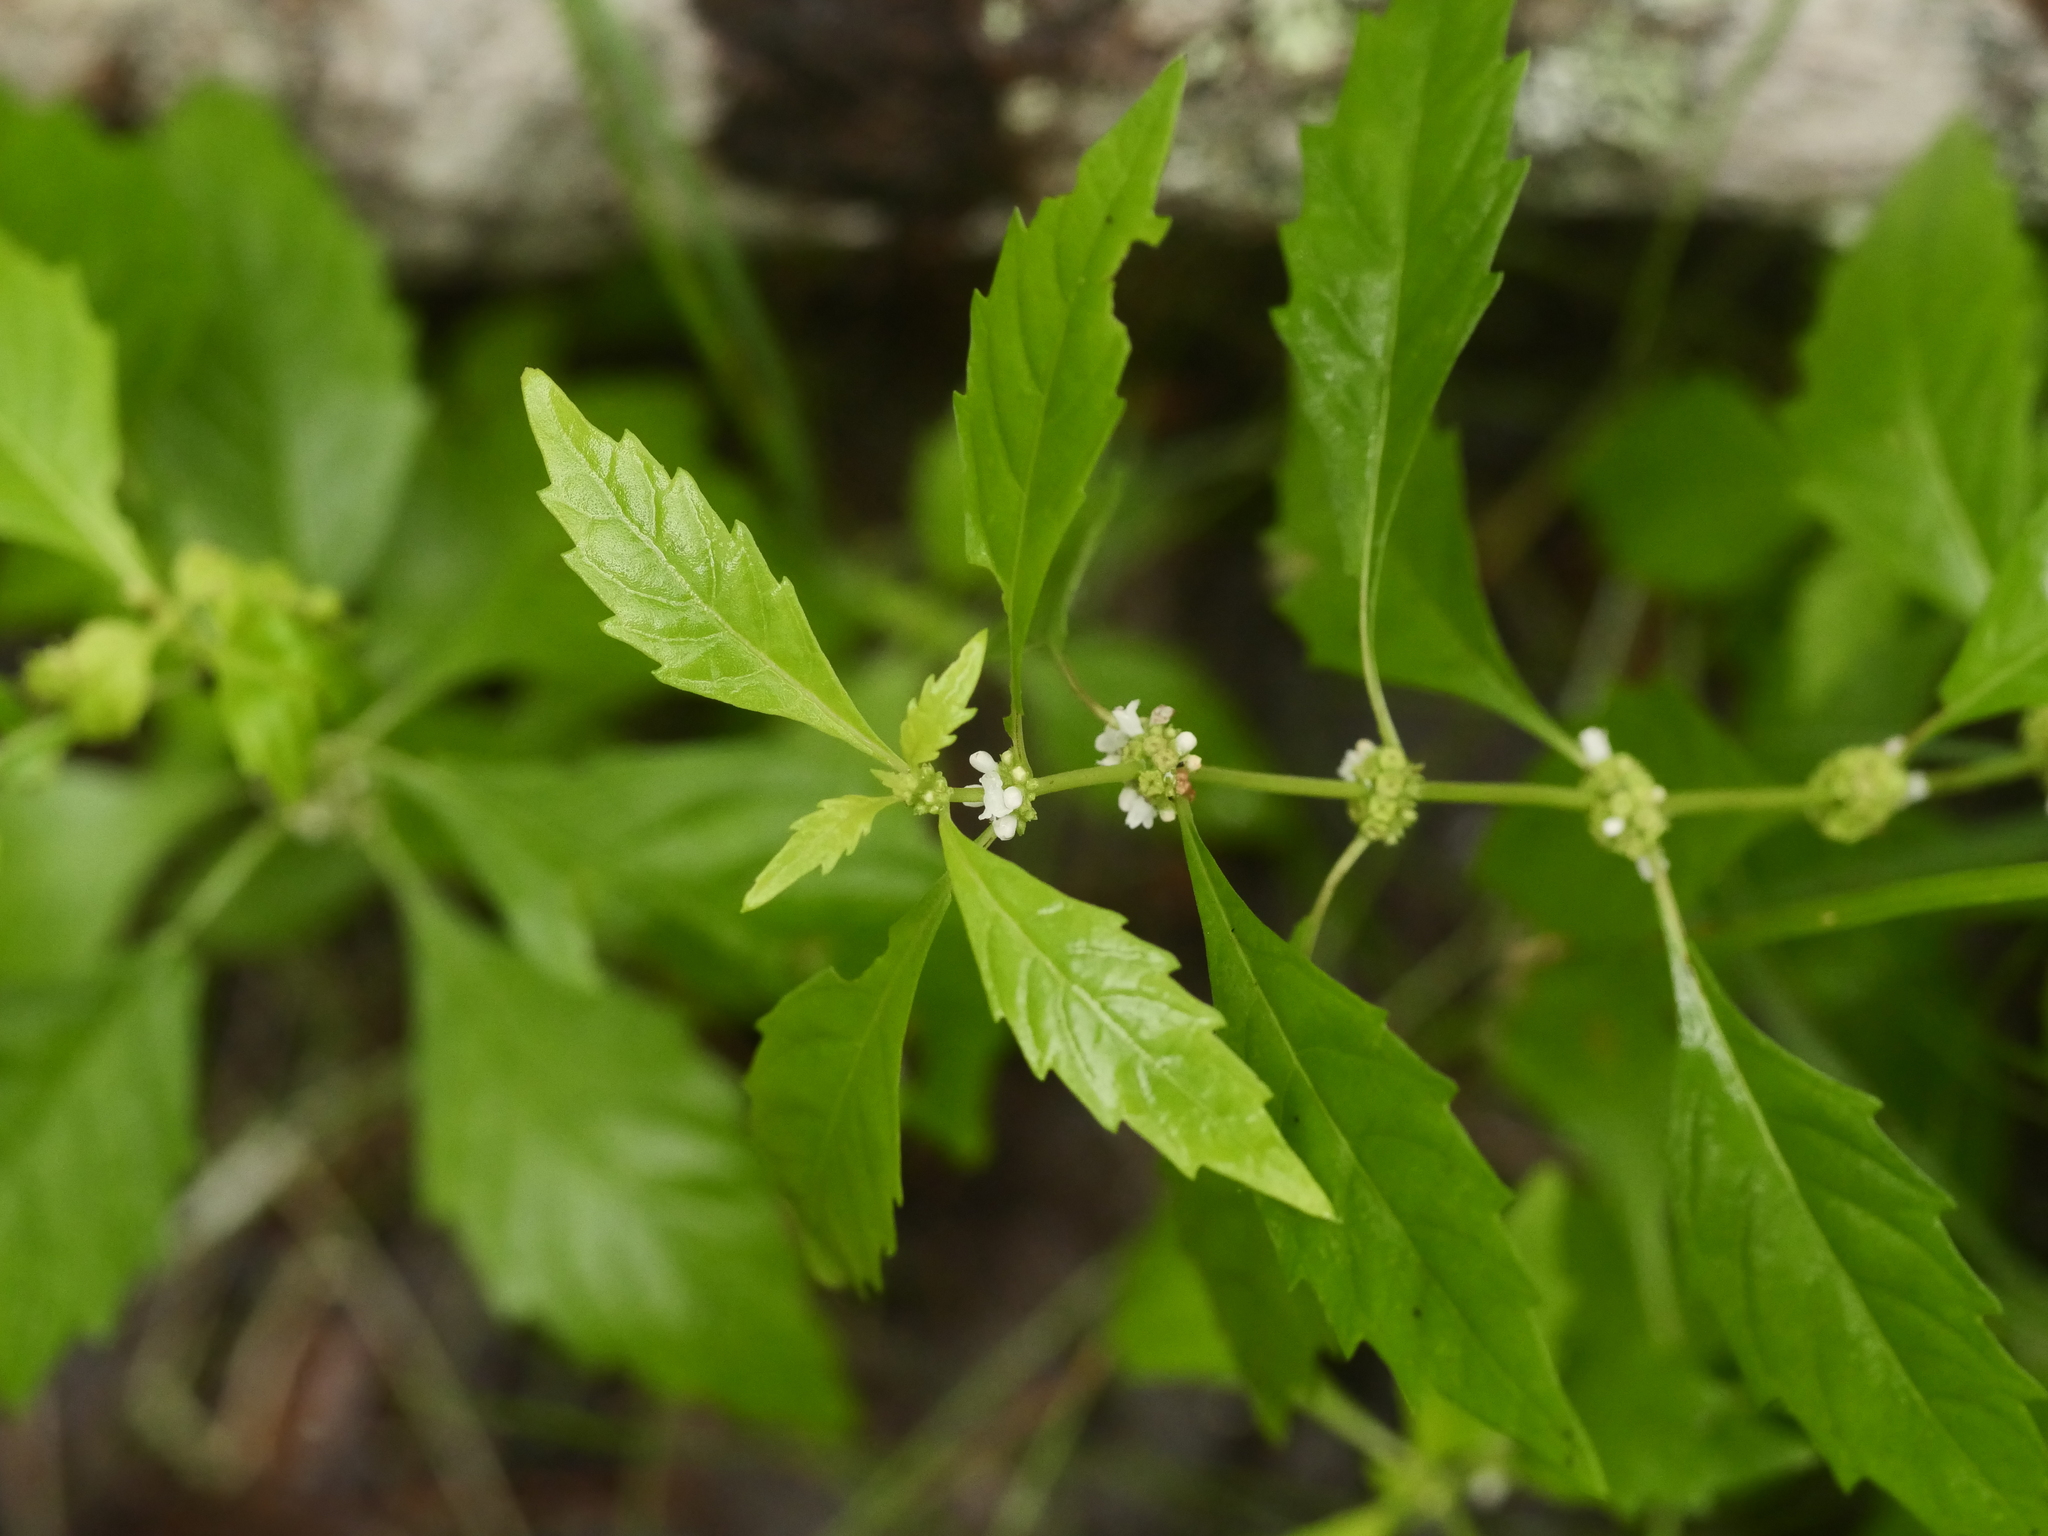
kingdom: Plantae
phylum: Tracheophyta
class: Magnoliopsida
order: Lamiales
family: Lamiaceae
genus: Lycopus
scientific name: Lycopus uniflorus
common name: Northern bugleweed
